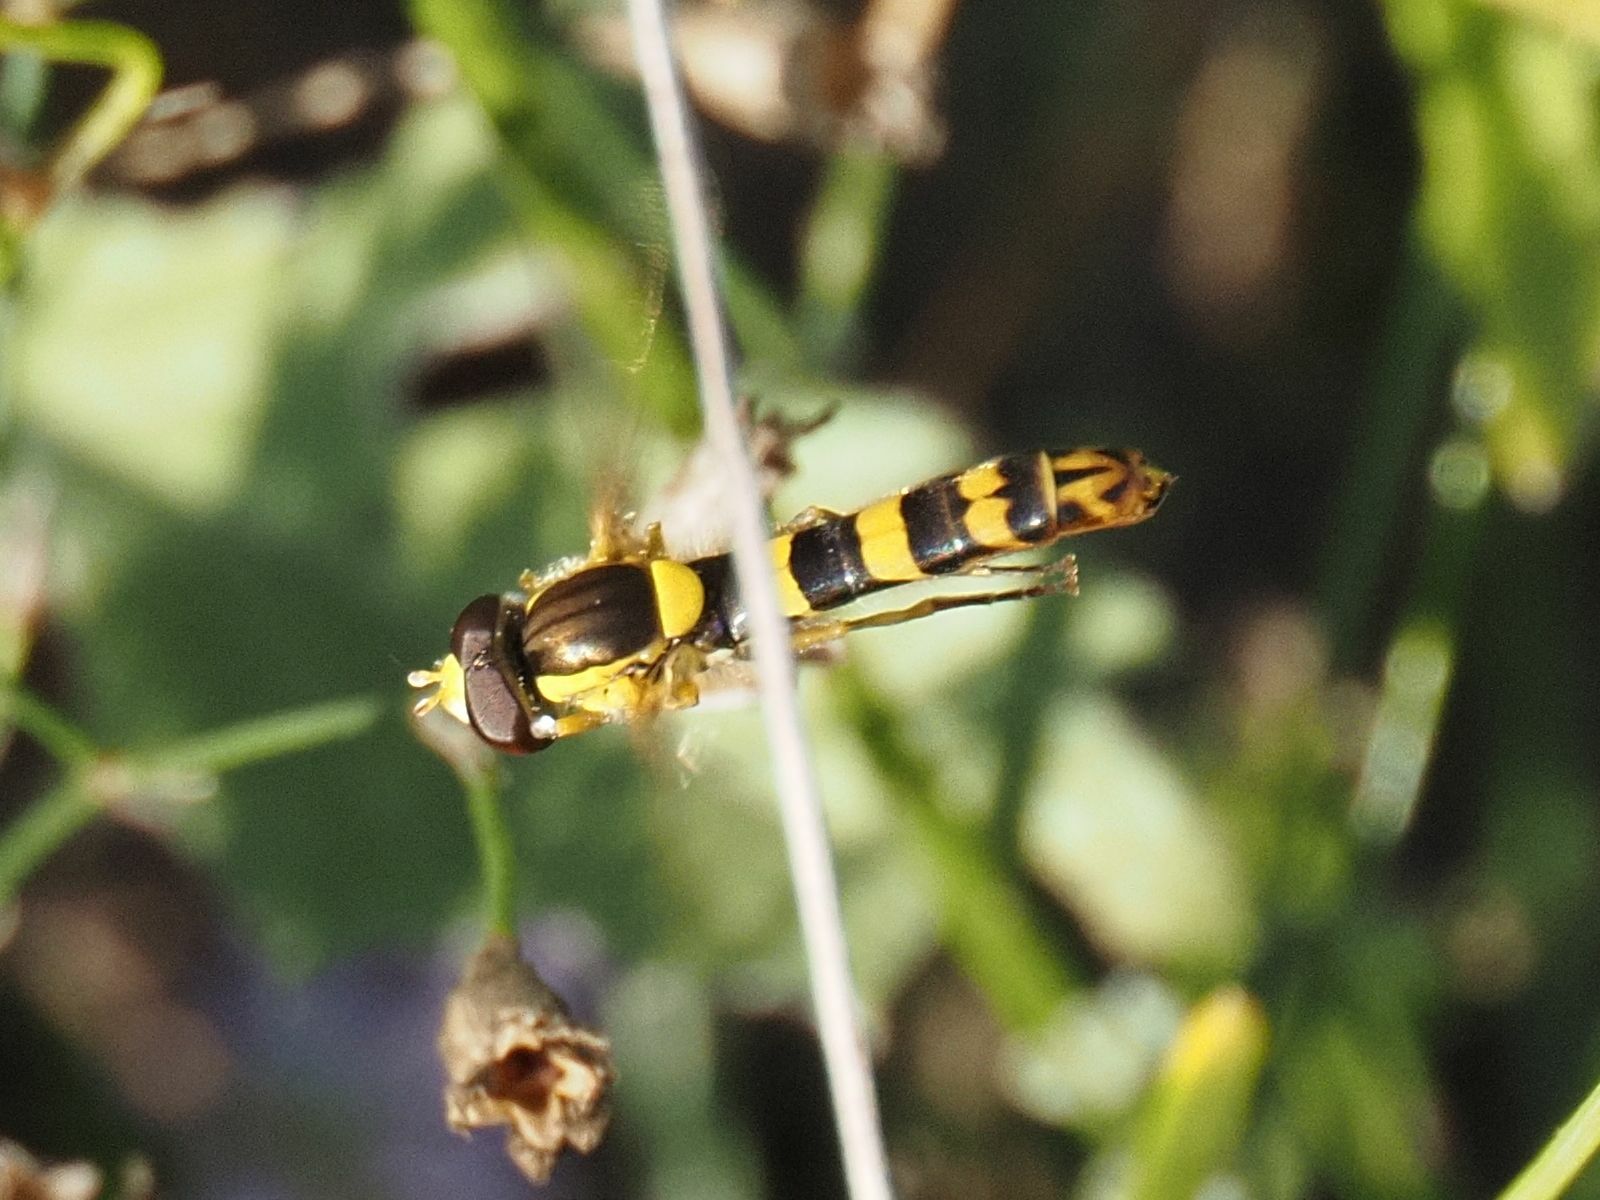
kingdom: Animalia
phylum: Arthropoda
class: Insecta
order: Diptera
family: Syrphidae
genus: Sphaerophoria
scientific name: Sphaerophoria scripta
